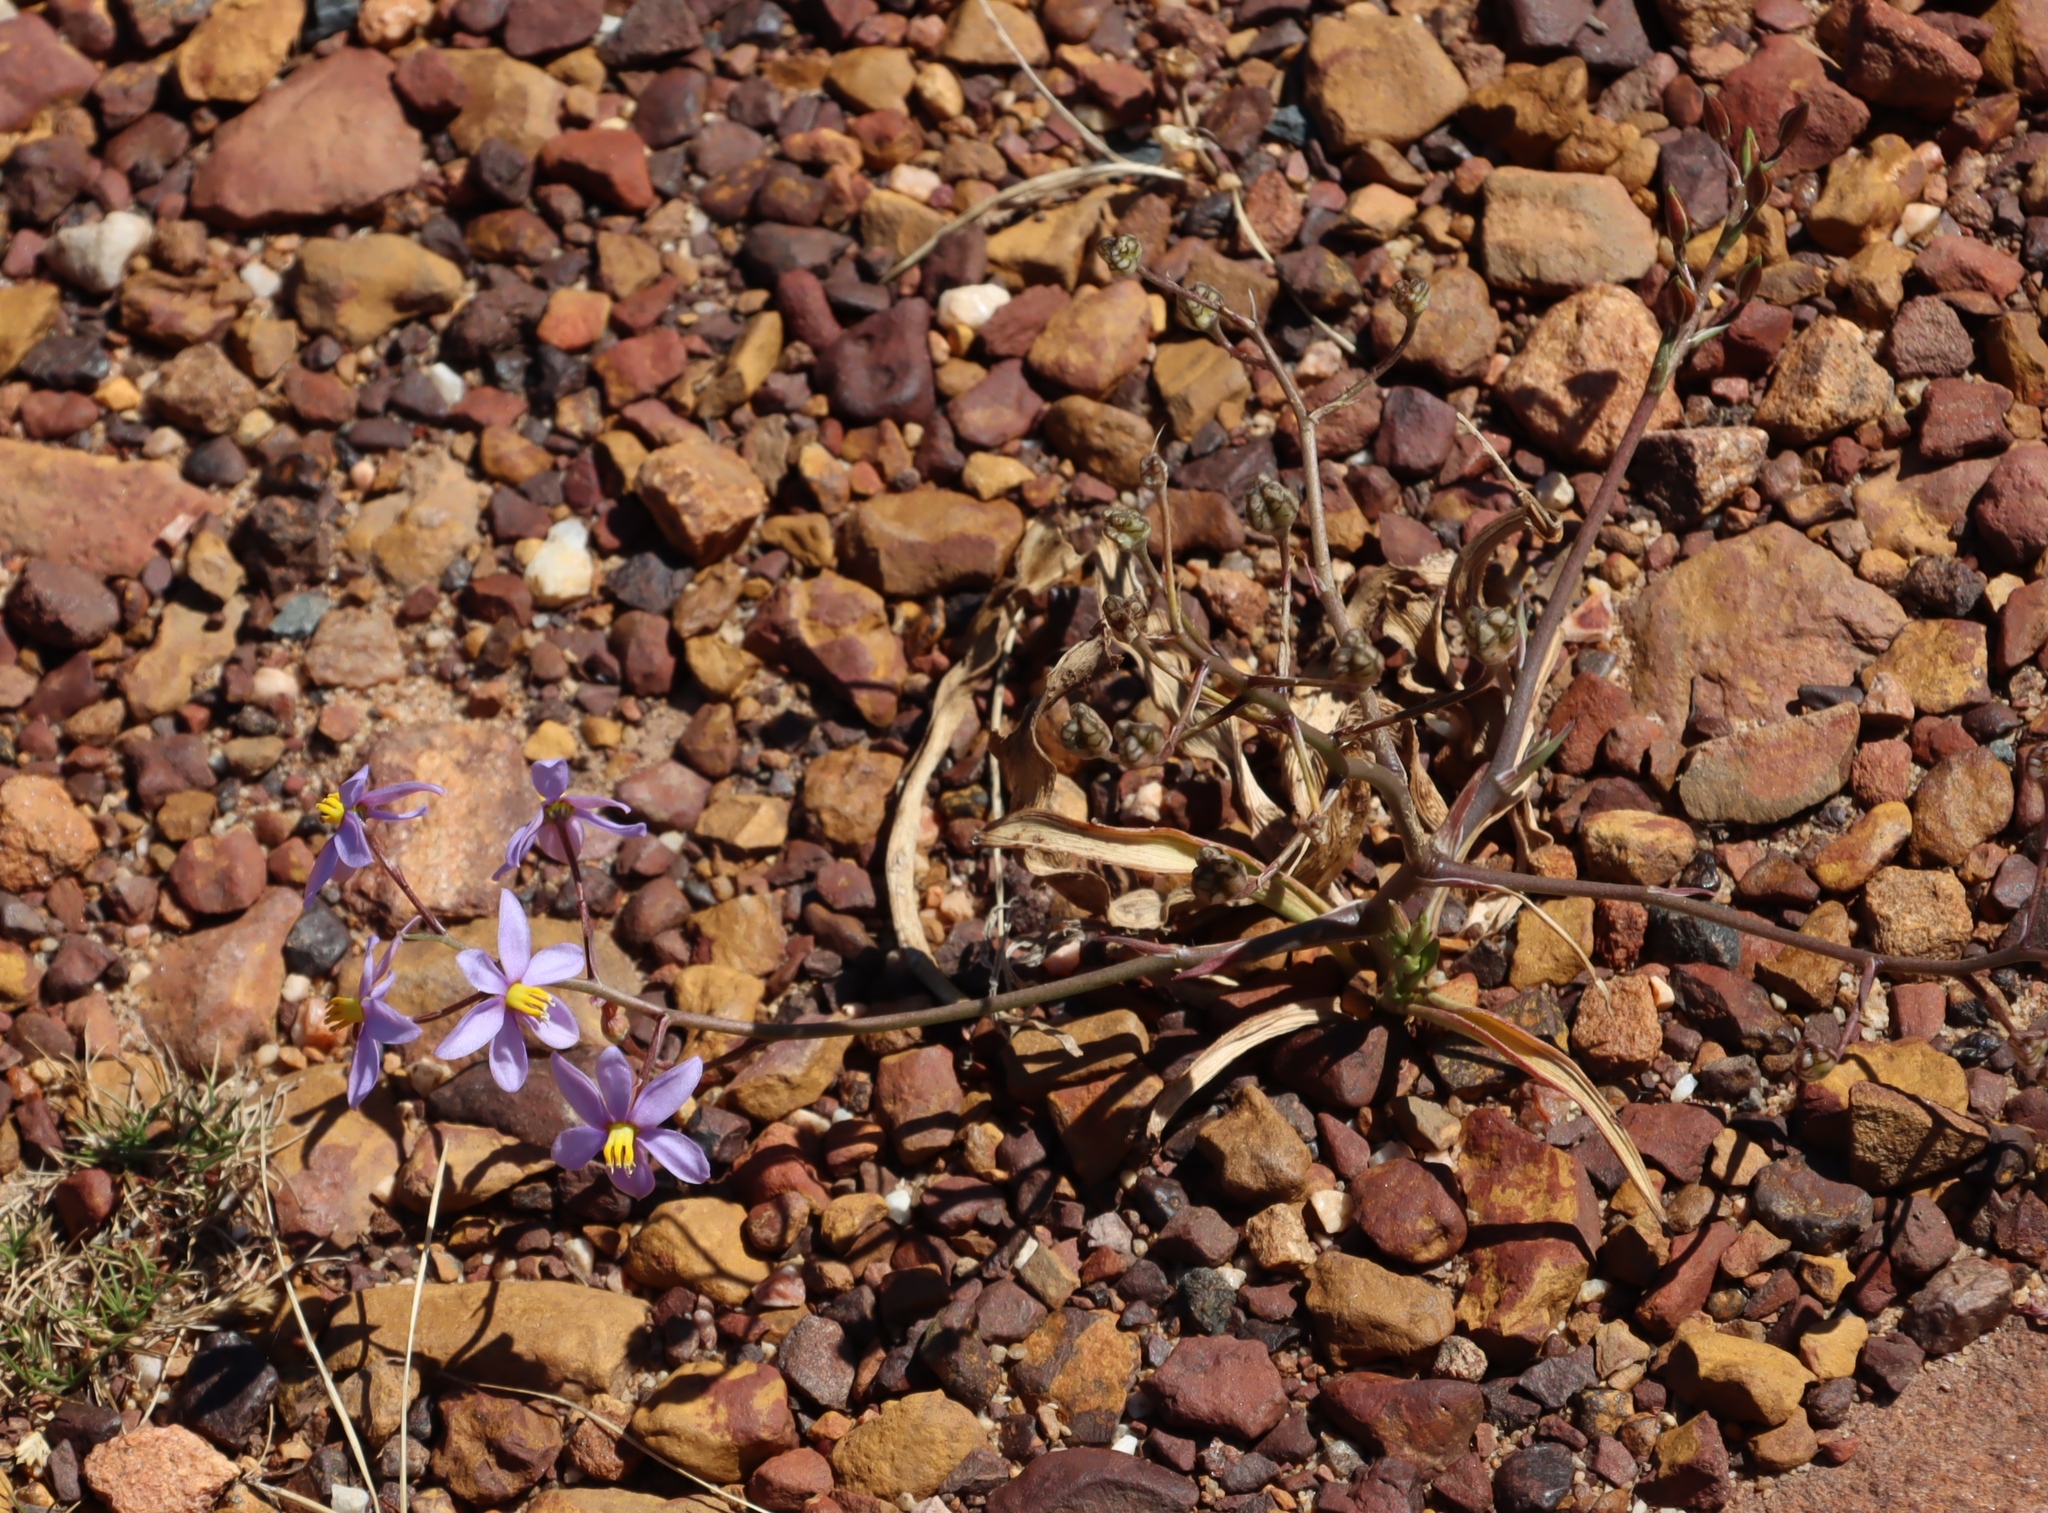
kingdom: Plantae
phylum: Tracheophyta
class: Liliopsida
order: Asparagales
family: Tecophilaeaceae
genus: Cyanella
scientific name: Cyanella hyacinthoides
